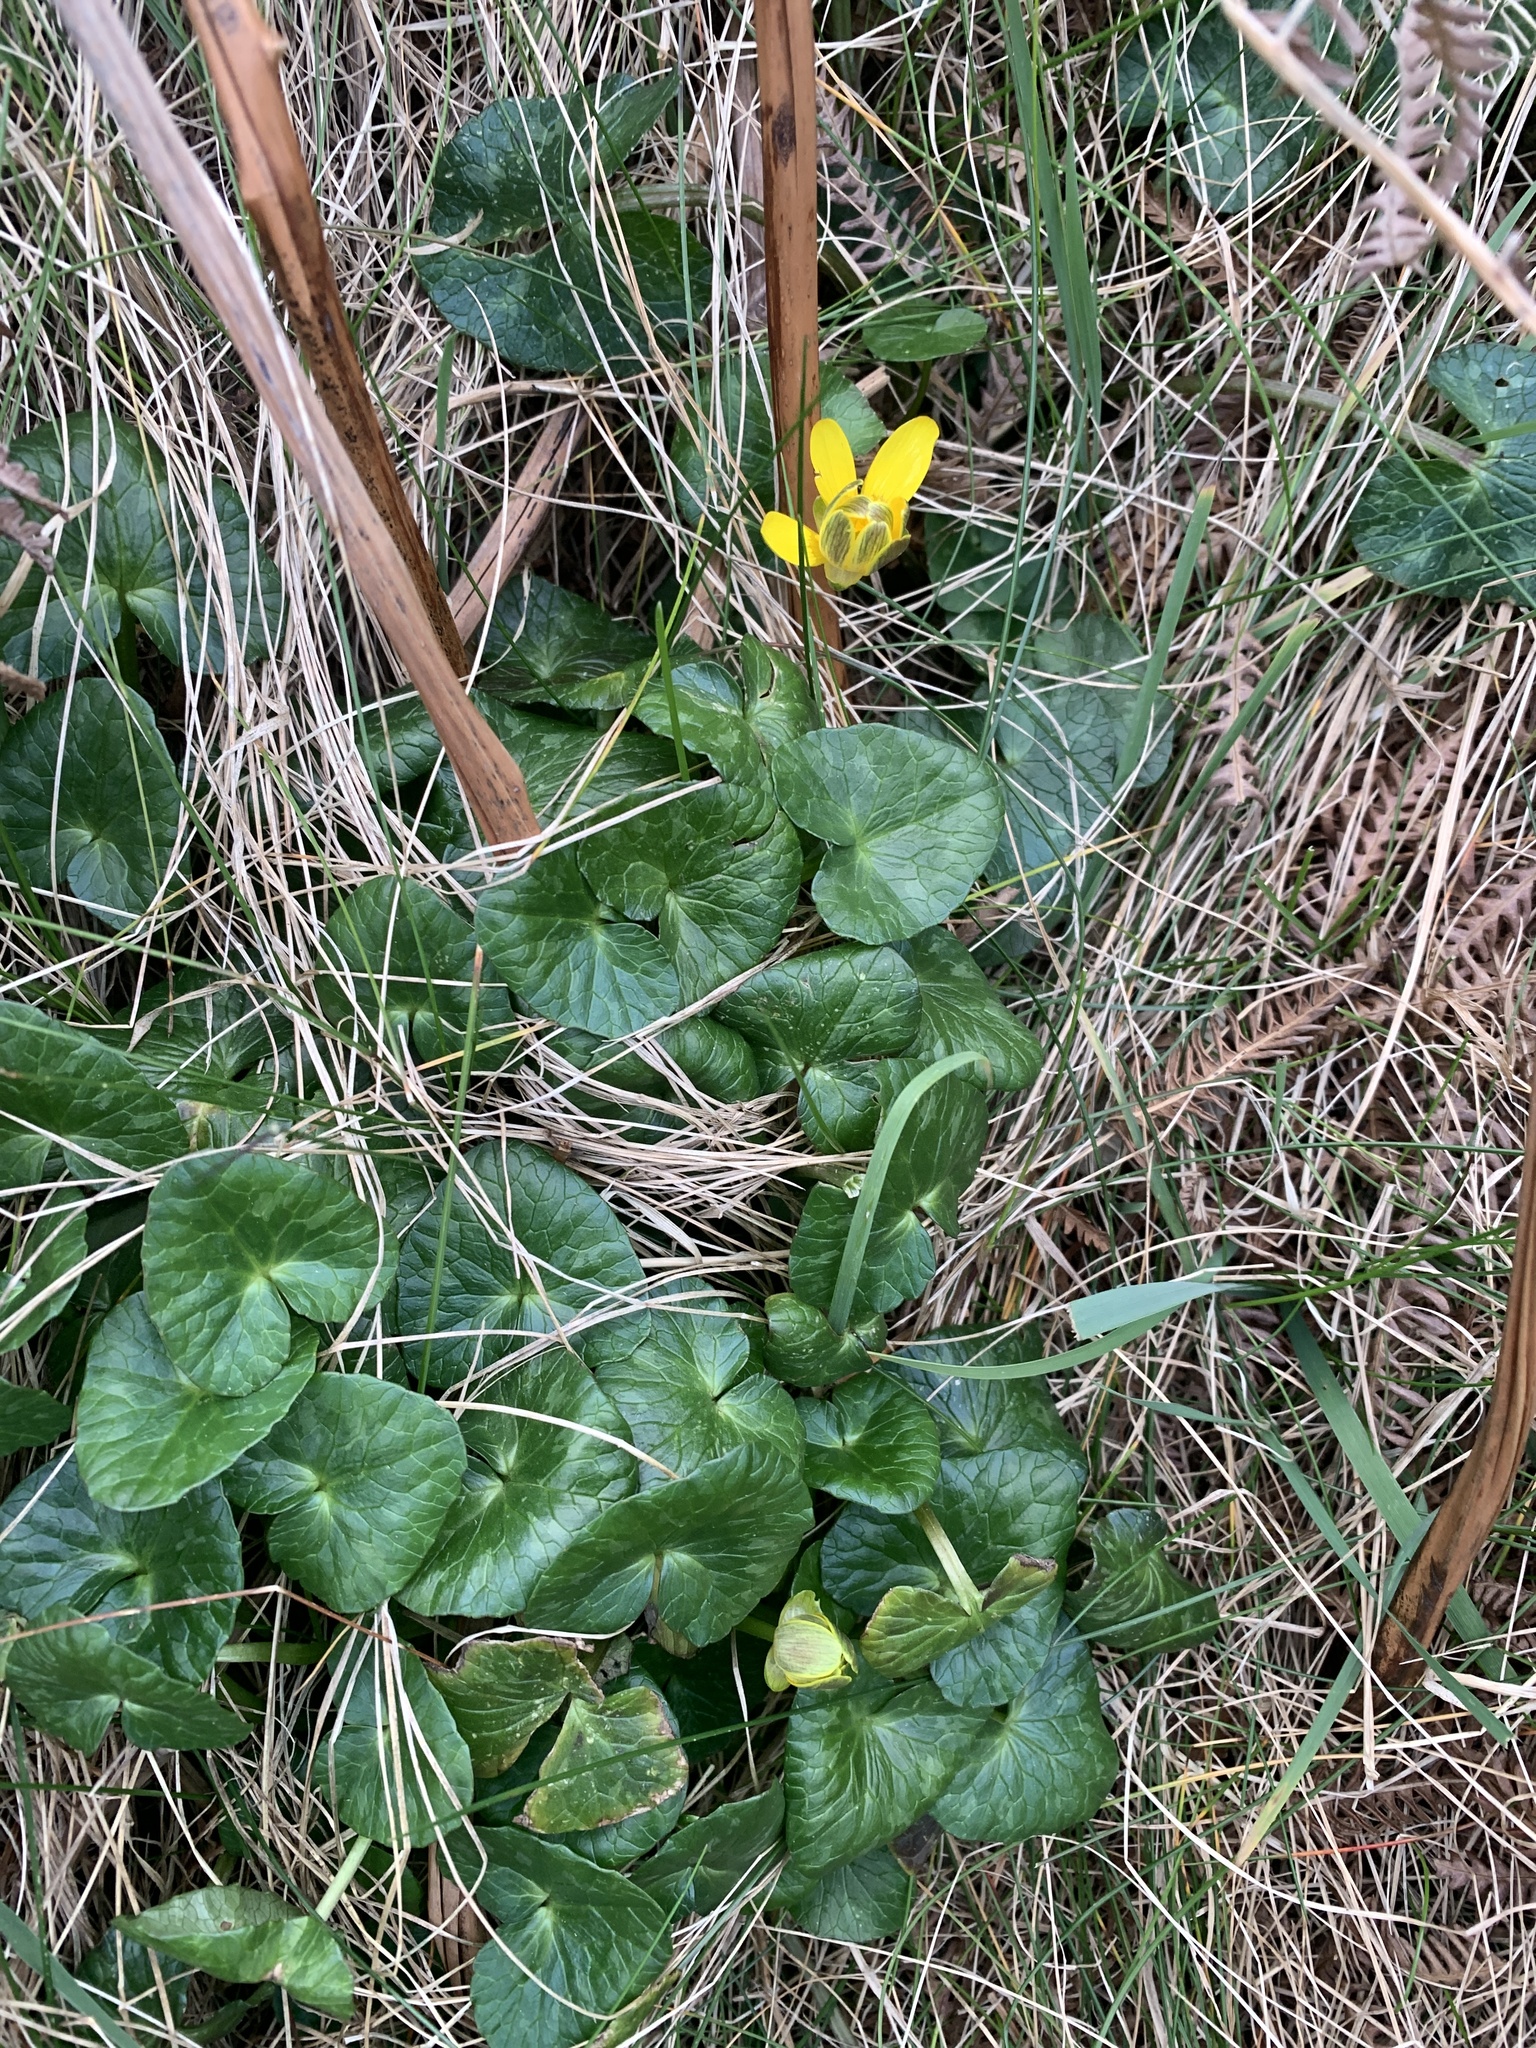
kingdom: Plantae
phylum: Tracheophyta
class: Magnoliopsida
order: Ranunculales
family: Ranunculaceae
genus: Ficaria
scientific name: Ficaria verna
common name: Lesser celandine
